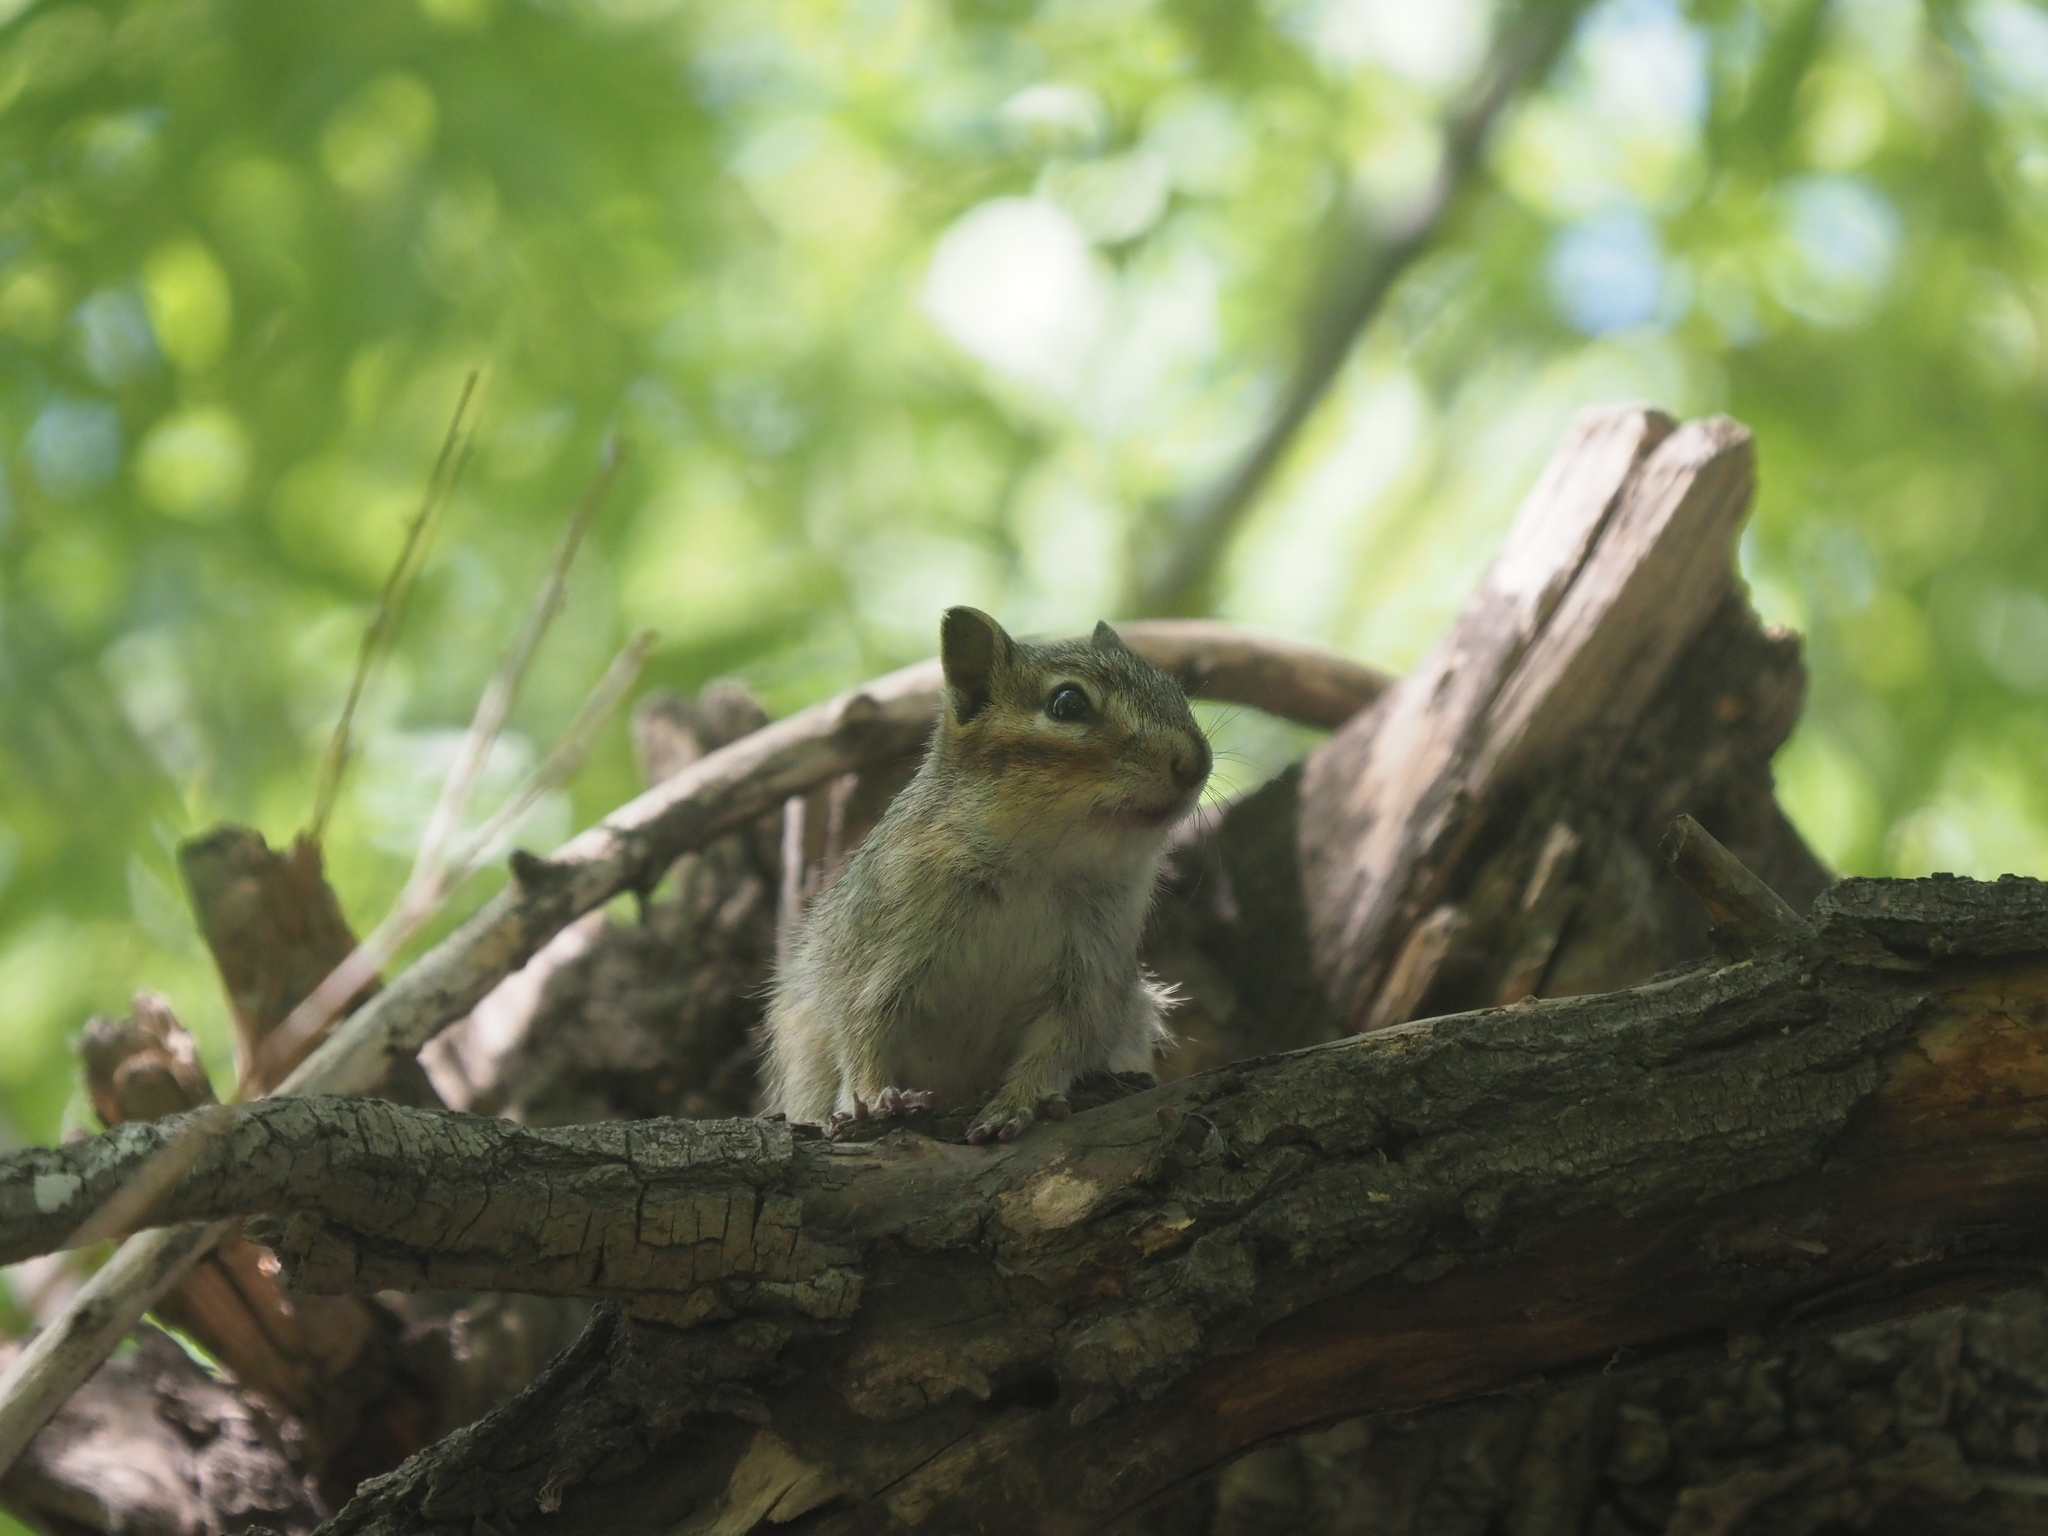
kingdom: Animalia
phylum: Chordata
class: Mammalia
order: Rodentia
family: Sciuridae
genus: Tamias
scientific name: Tamias sibiricus
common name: Siberian chipmunk
